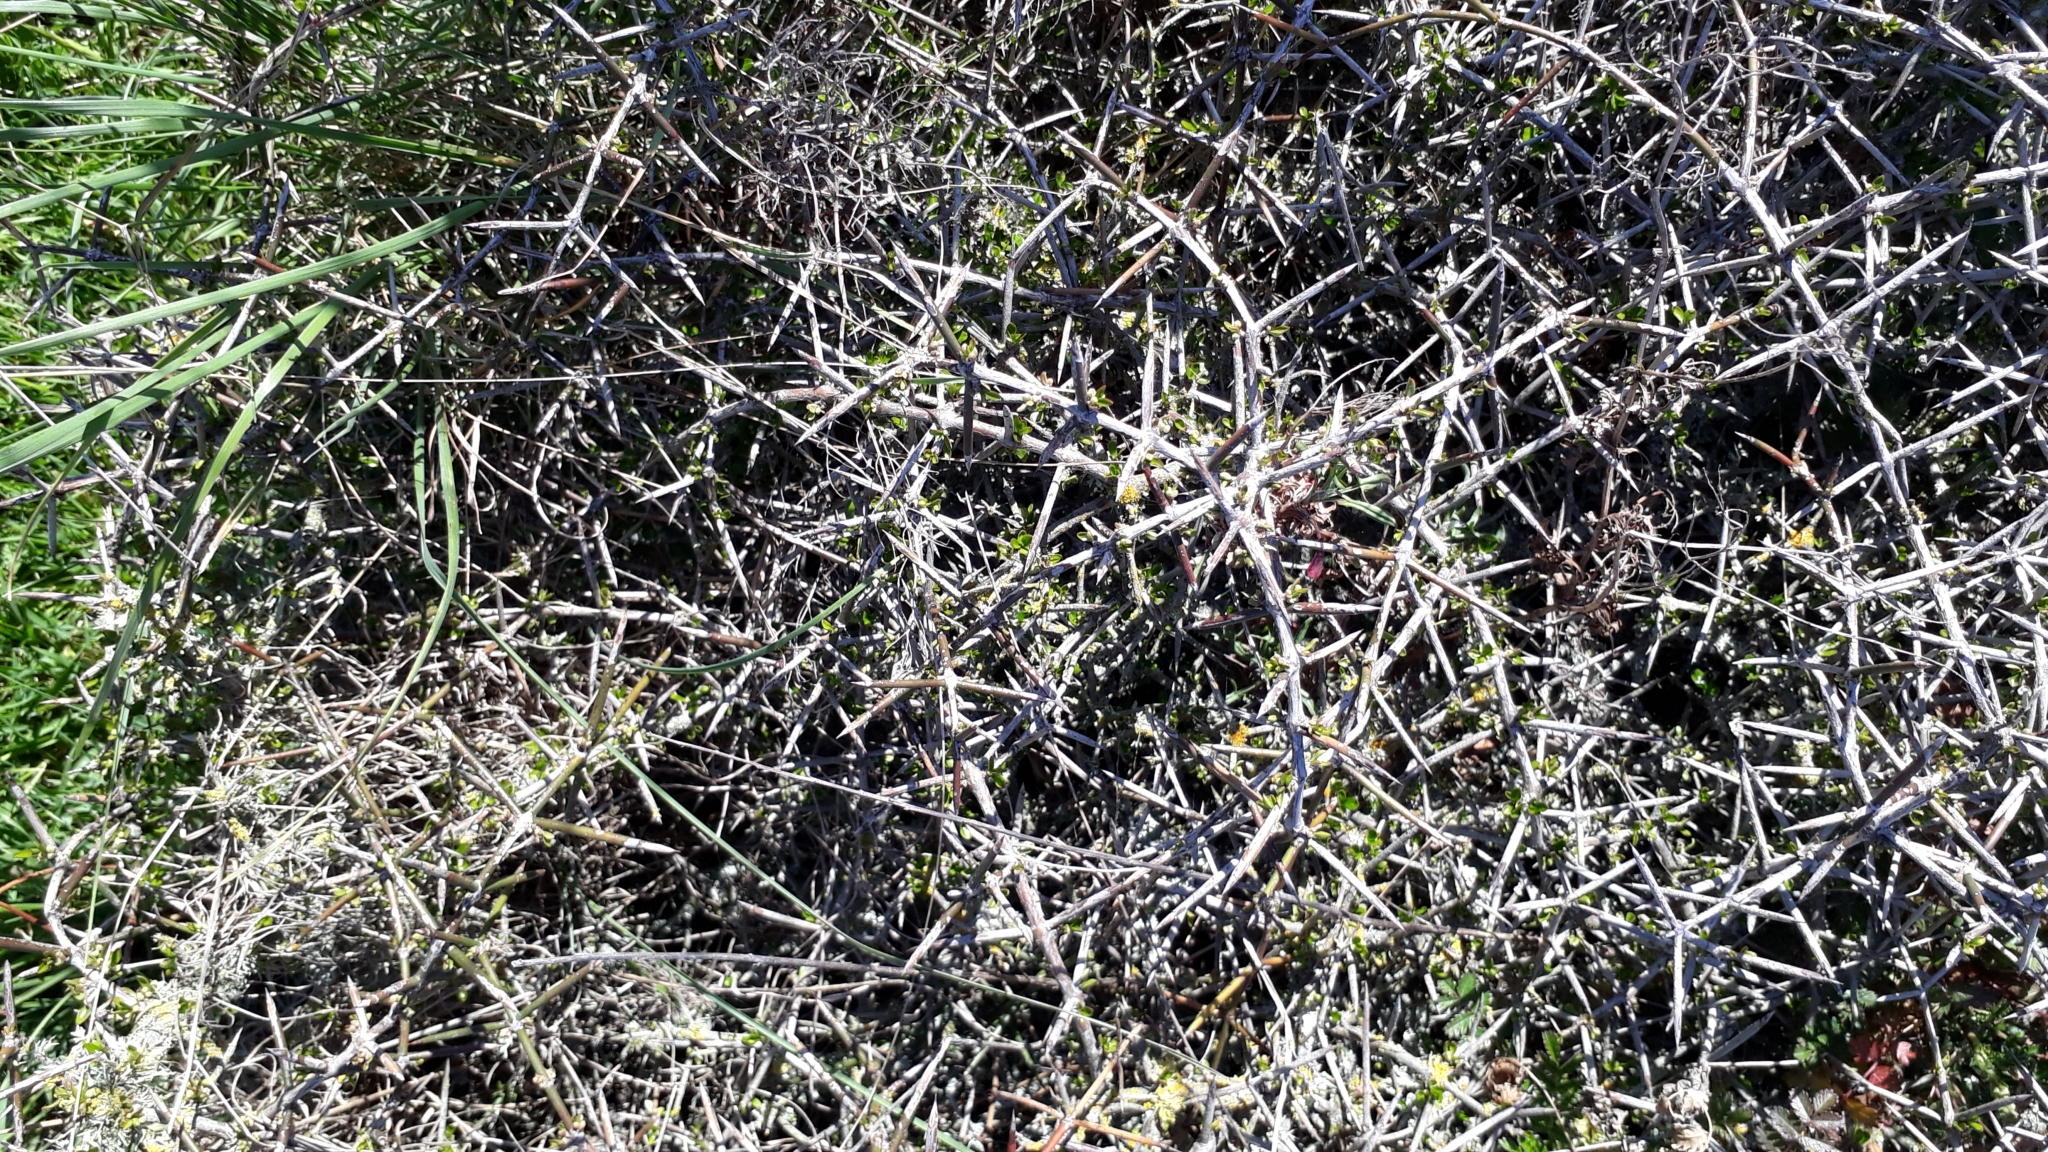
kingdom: Plantae
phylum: Tracheophyta
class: Magnoliopsida
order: Rosales
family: Rhamnaceae
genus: Discaria
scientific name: Discaria toumatou
